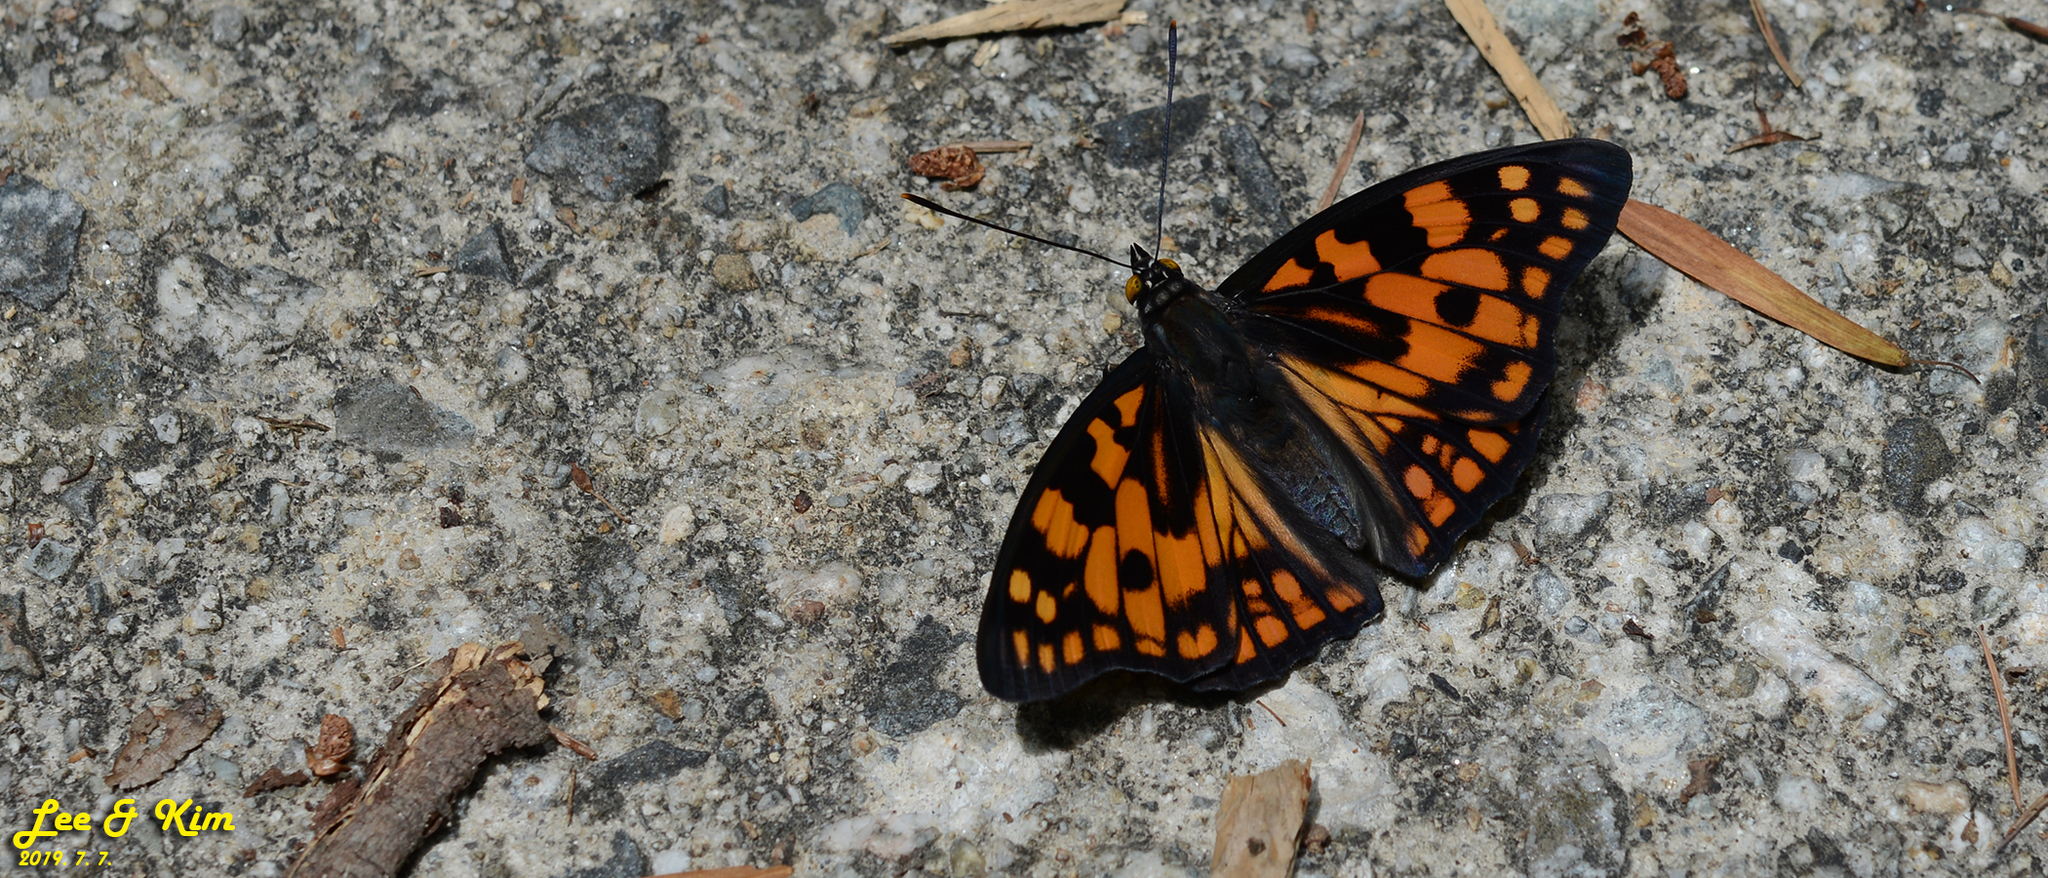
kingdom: Animalia
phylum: Arthropoda
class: Insecta
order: Lepidoptera
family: Nymphalidae
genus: Sephisa
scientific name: Sephisa dichroa
